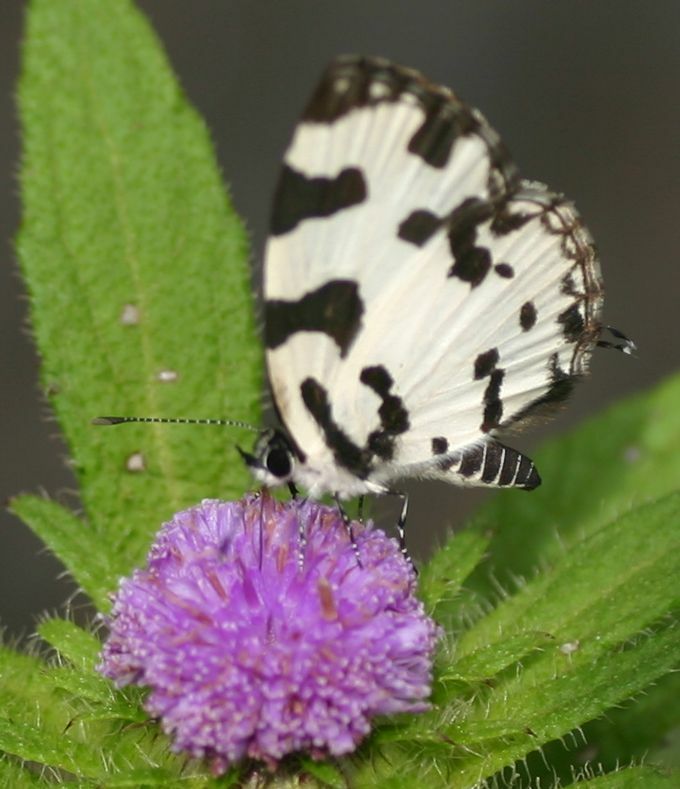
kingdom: Animalia
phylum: Arthropoda
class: Insecta
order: Lepidoptera
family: Lycaenidae
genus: Caleta
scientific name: Caleta decidia
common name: Angled pierrot
